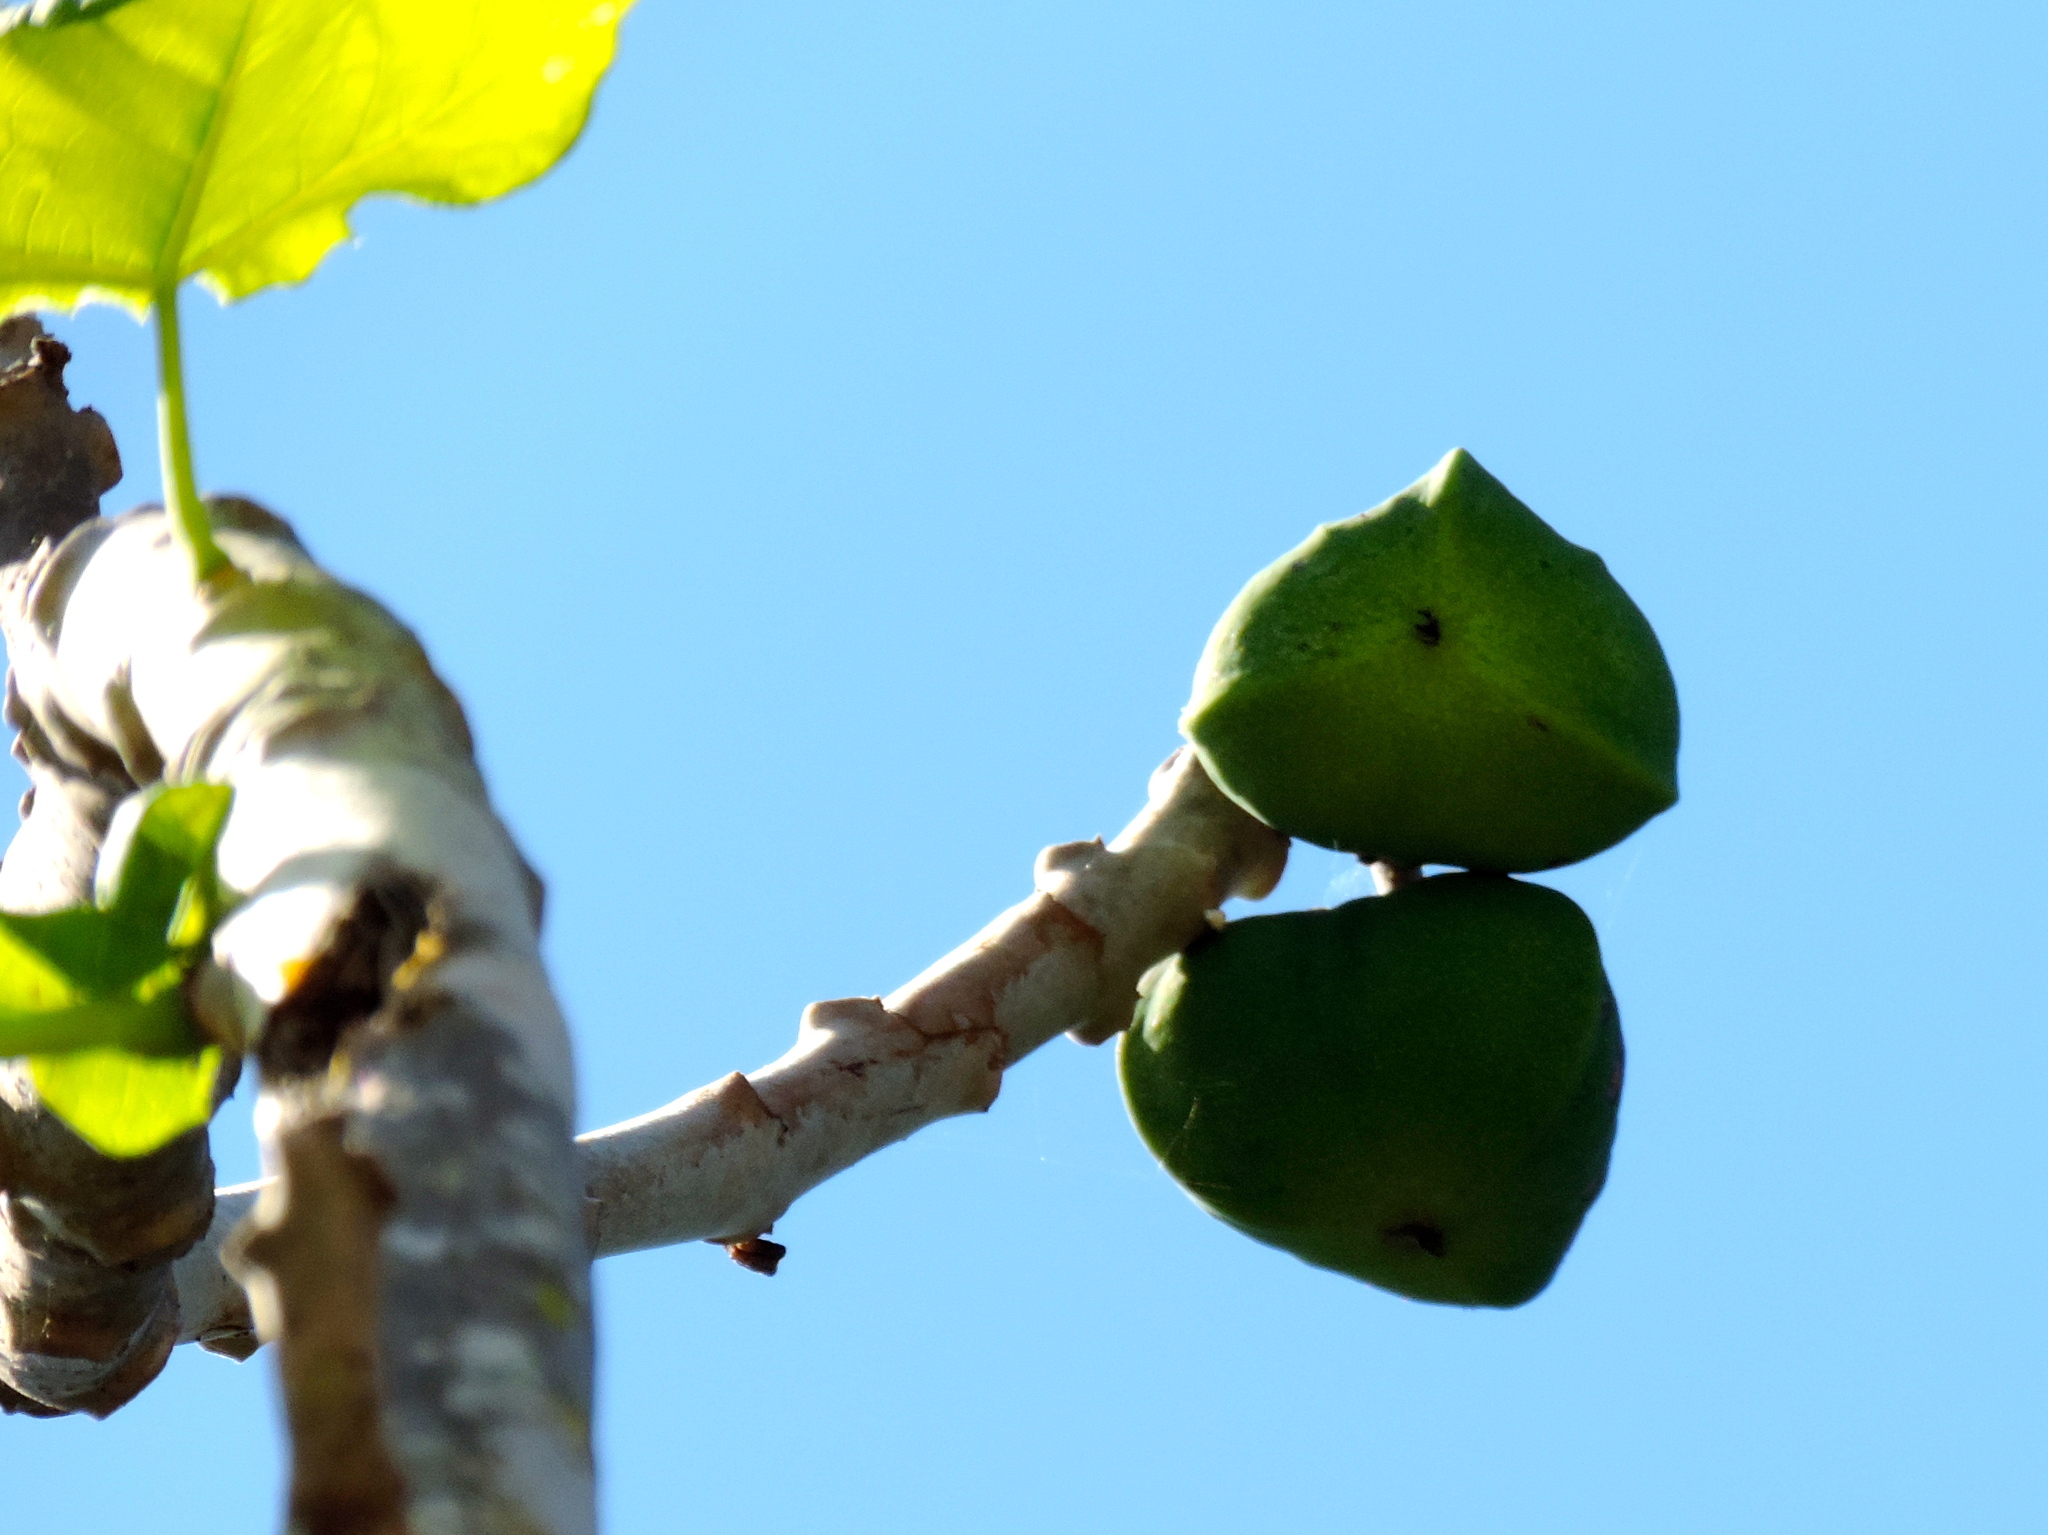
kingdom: Plantae
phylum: Tracheophyta
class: Magnoliopsida
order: Malpighiales
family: Euphorbiaceae
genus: Jatropha
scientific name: Jatropha peltata
